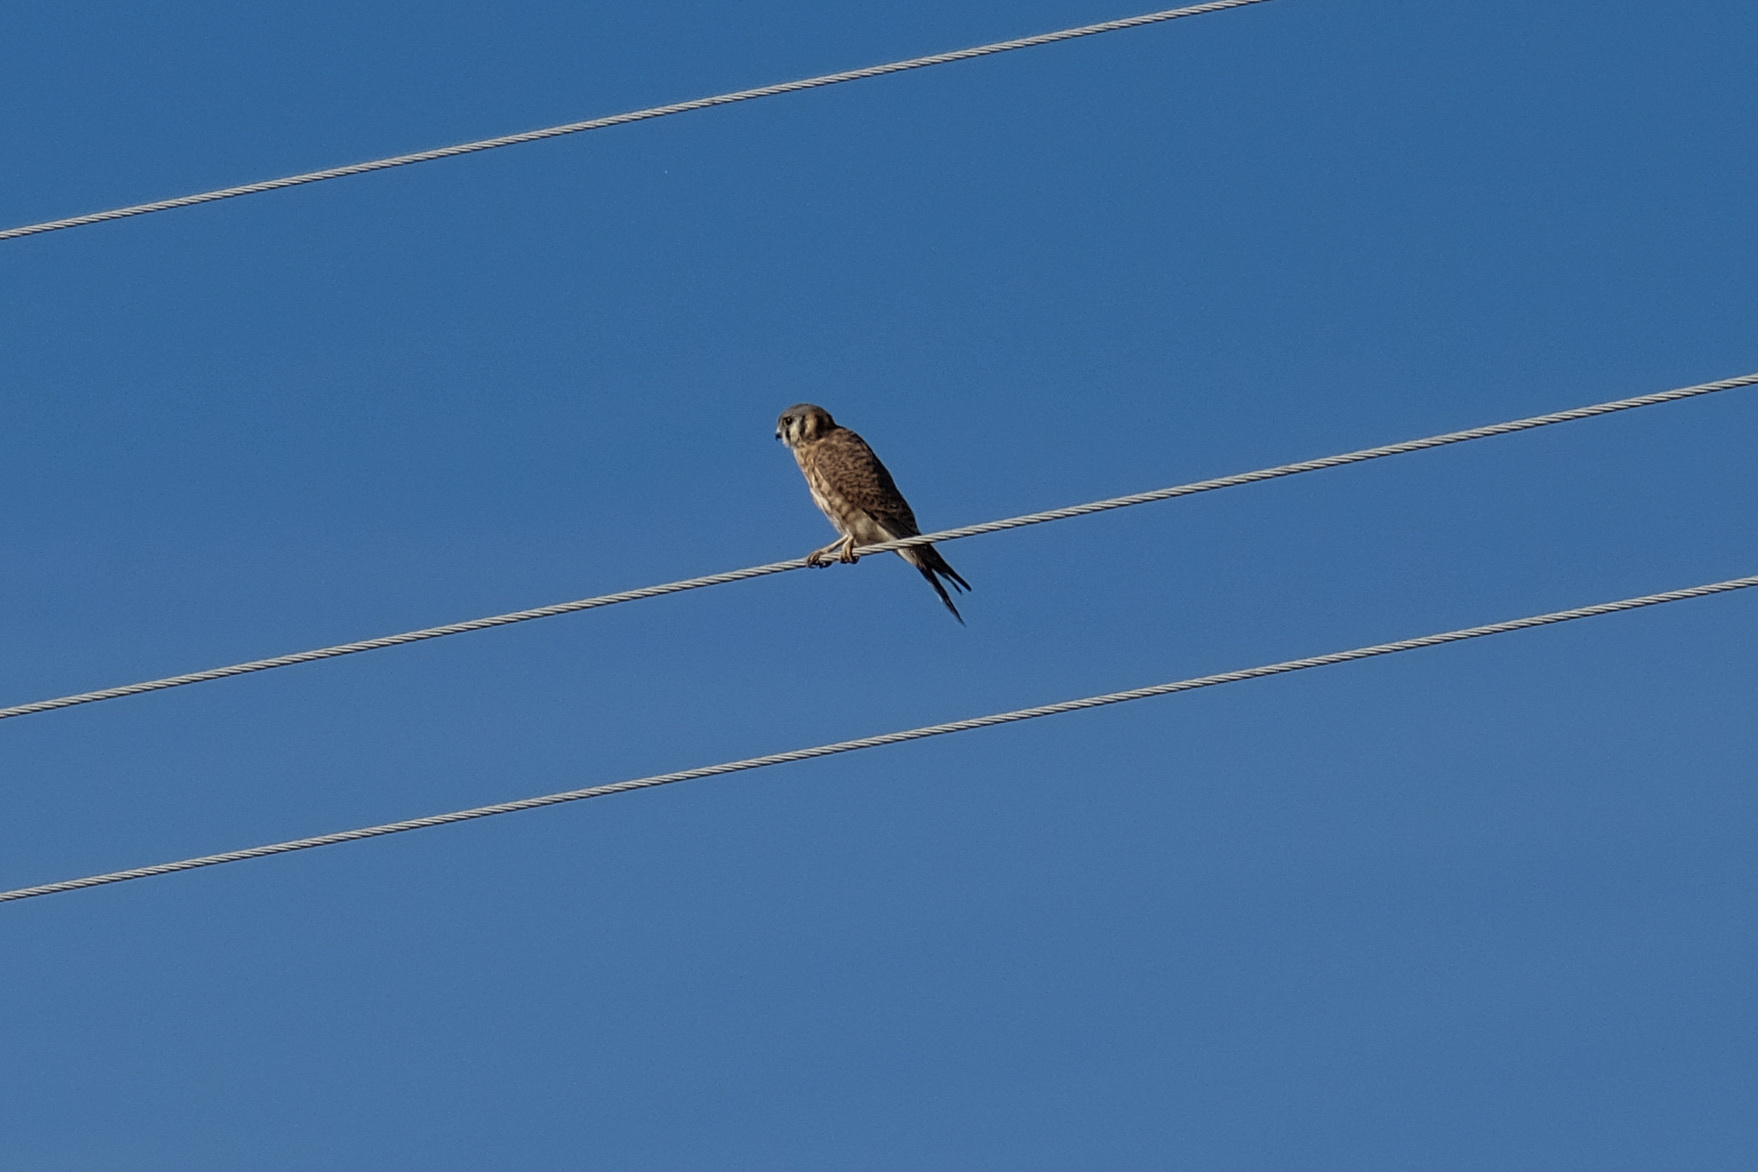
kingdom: Animalia
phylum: Chordata
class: Aves
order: Falconiformes
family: Falconidae
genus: Falco
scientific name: Falco sparverius
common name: American kestrel
